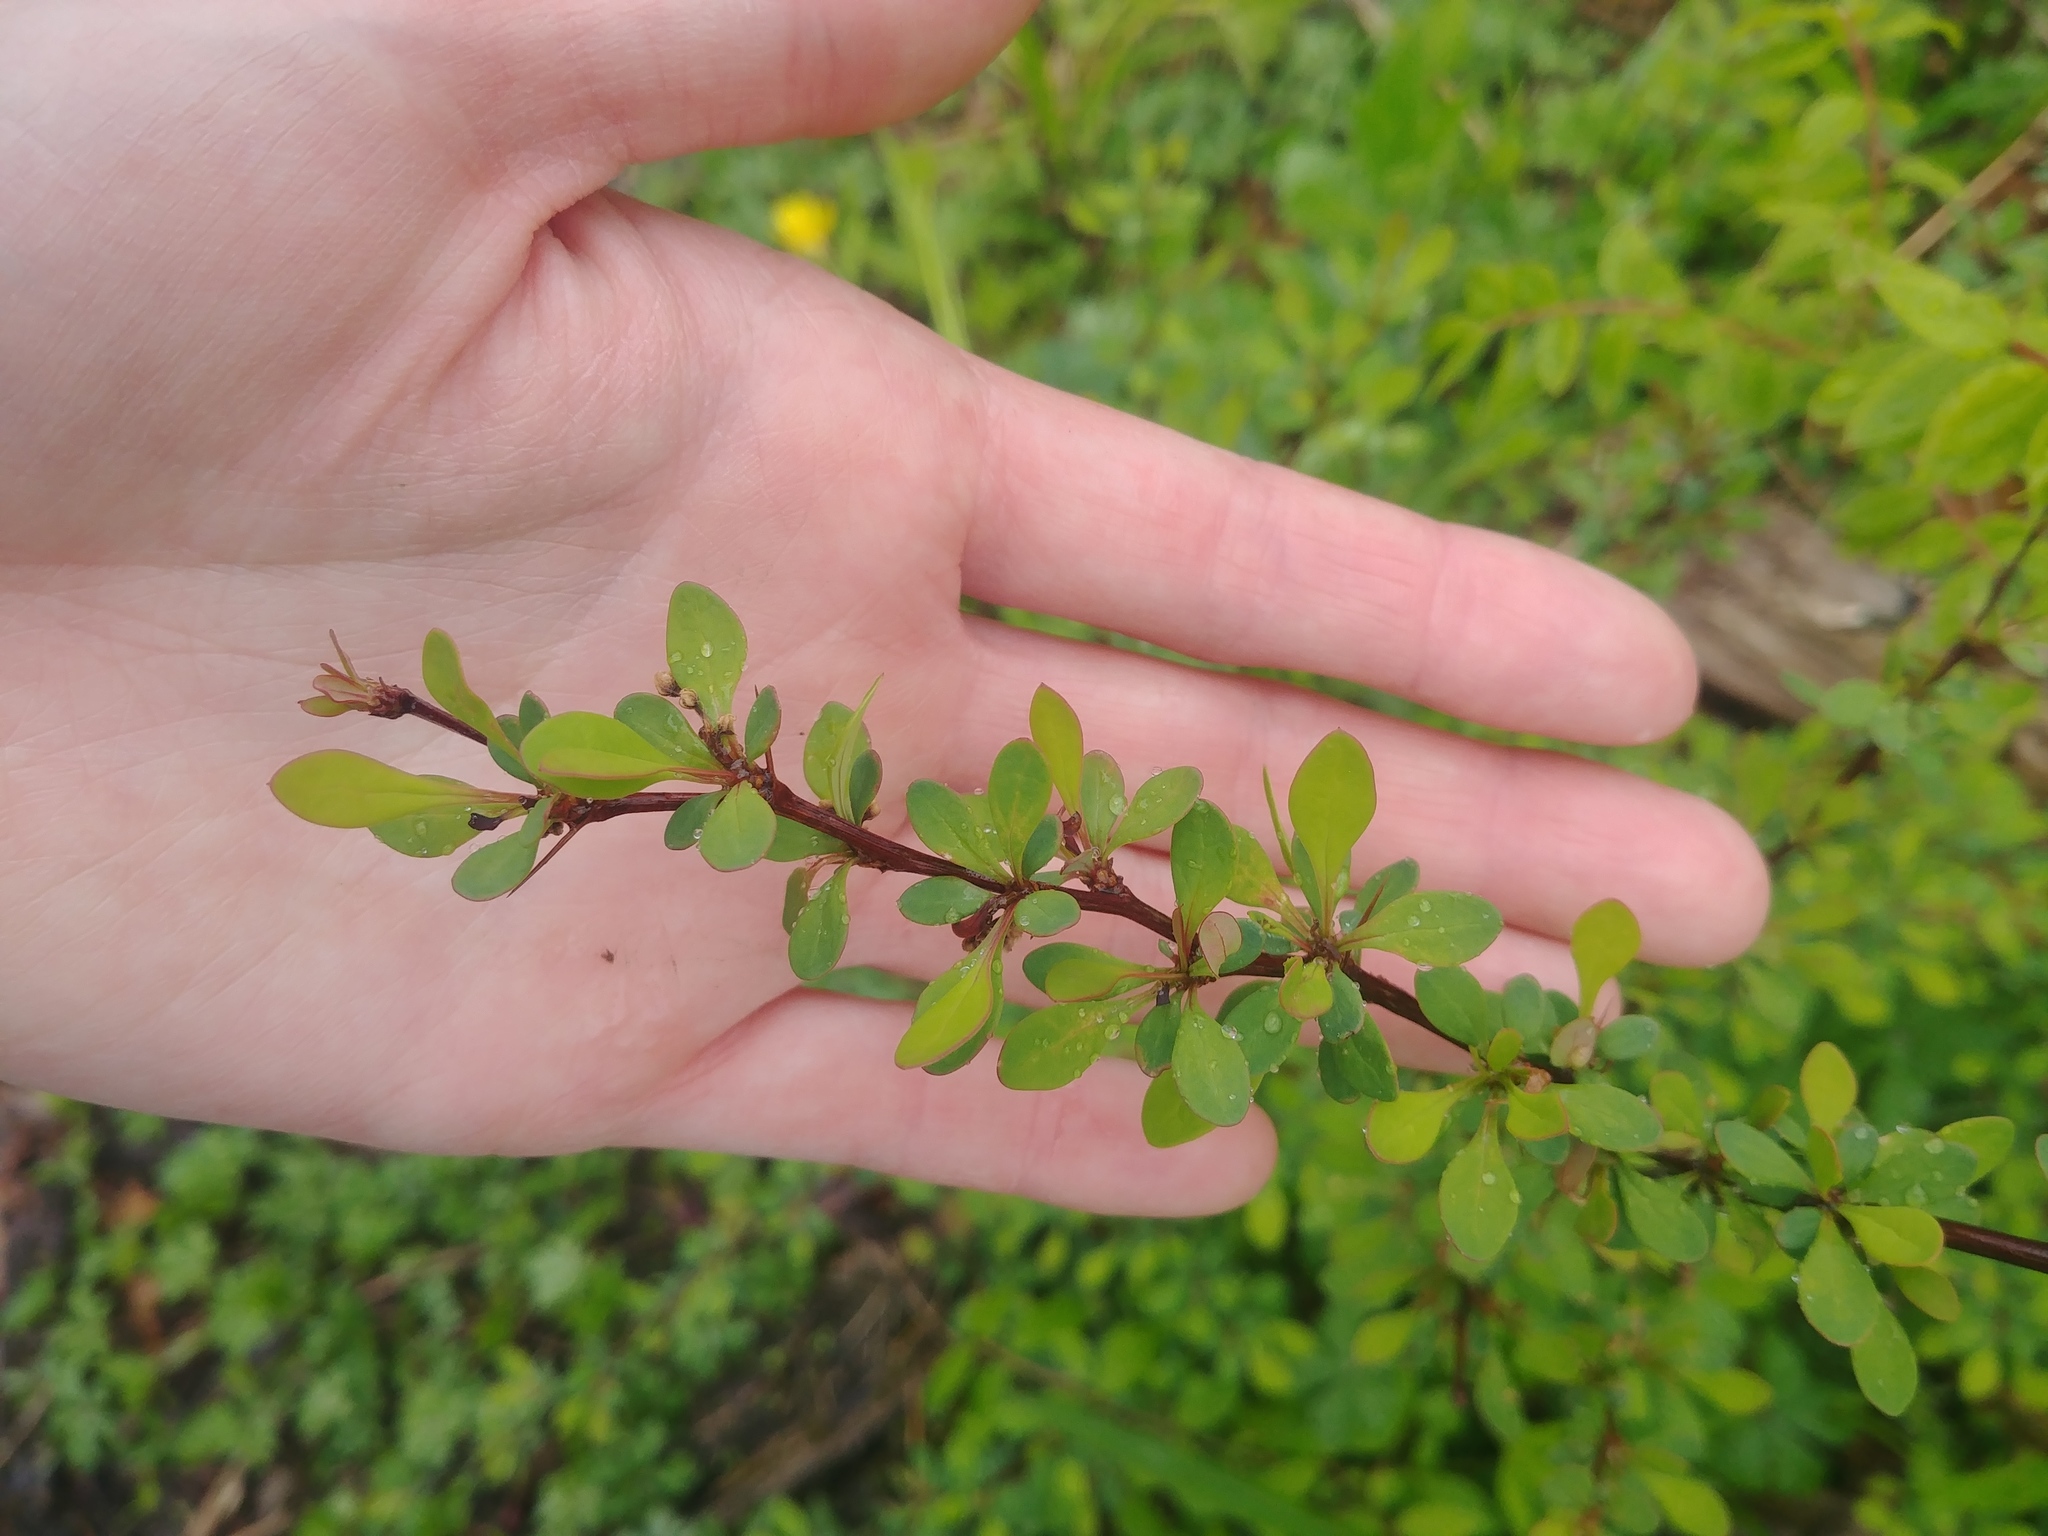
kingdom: Plantae
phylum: Tracheophyta
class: Magnoliopsida
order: Ranunculales
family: Berberidaceae
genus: Berberis
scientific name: Berberis thunbergii
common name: Japanese barberry
